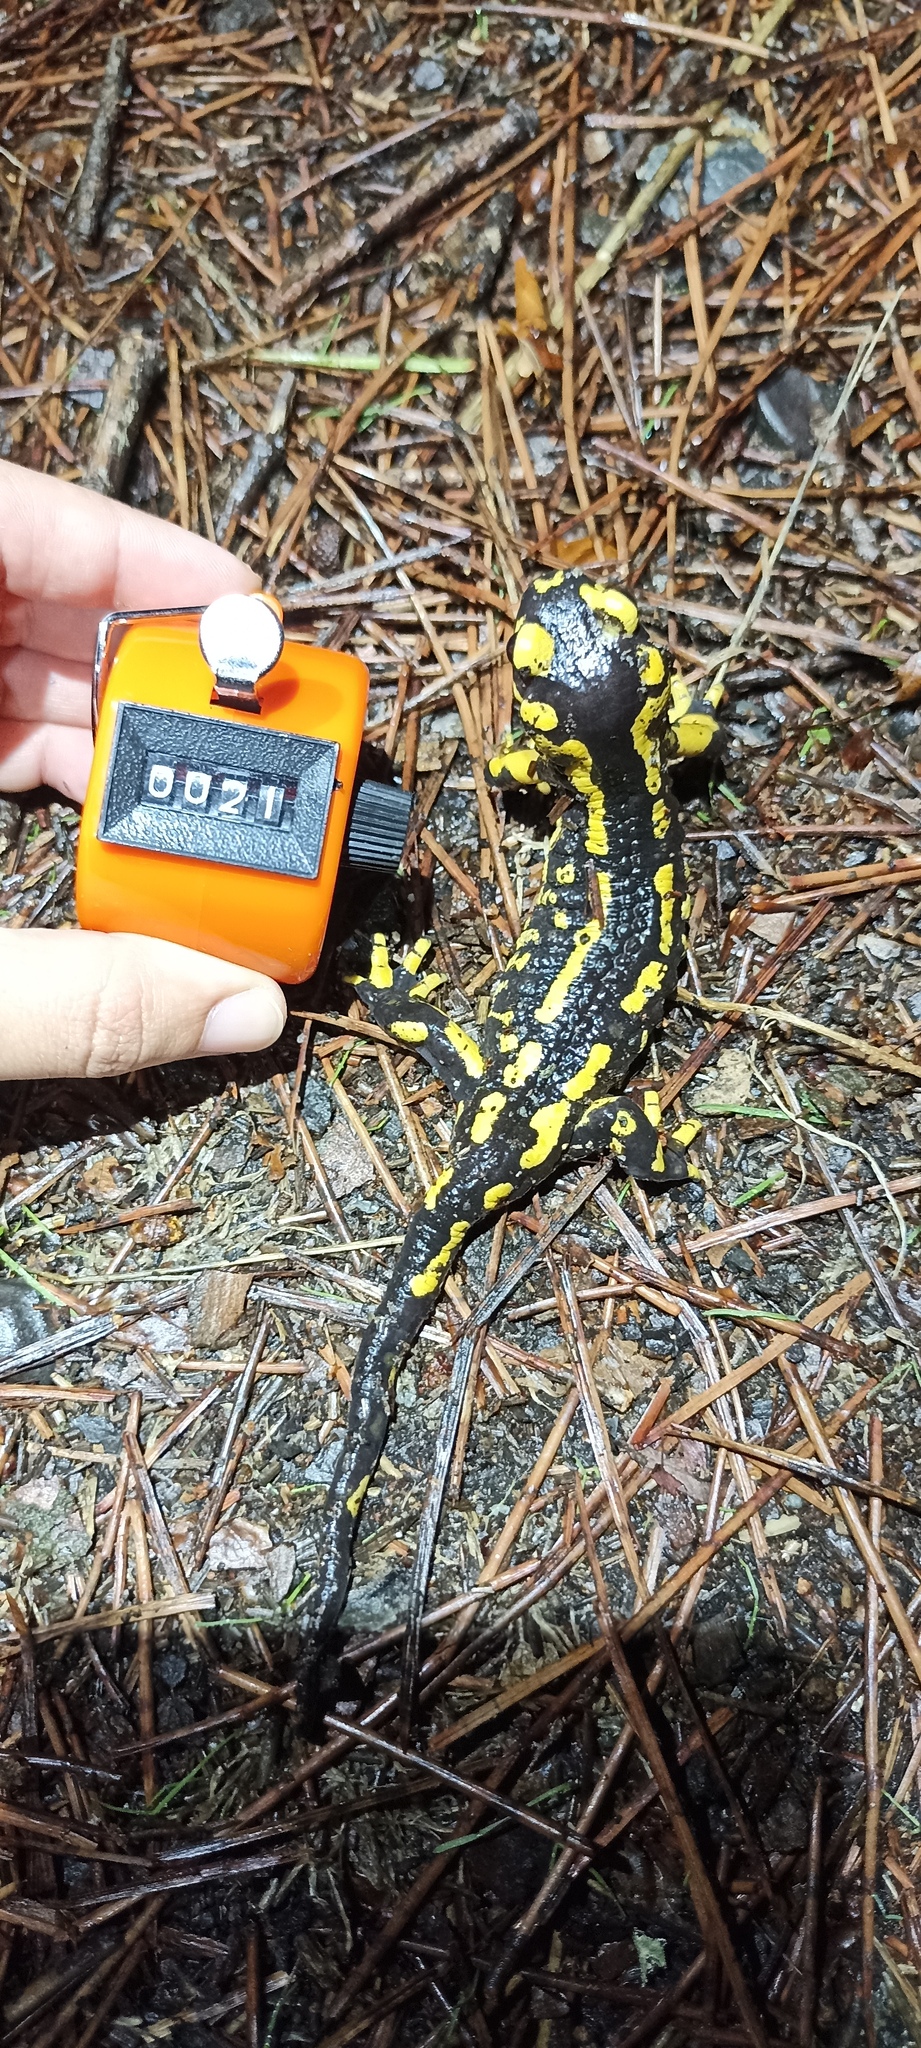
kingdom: Animalia
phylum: Chordata
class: Amphibia
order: Caudata
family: Salamandridae
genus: Salamandra
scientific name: Salamandra salamandra
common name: Fire salamander
